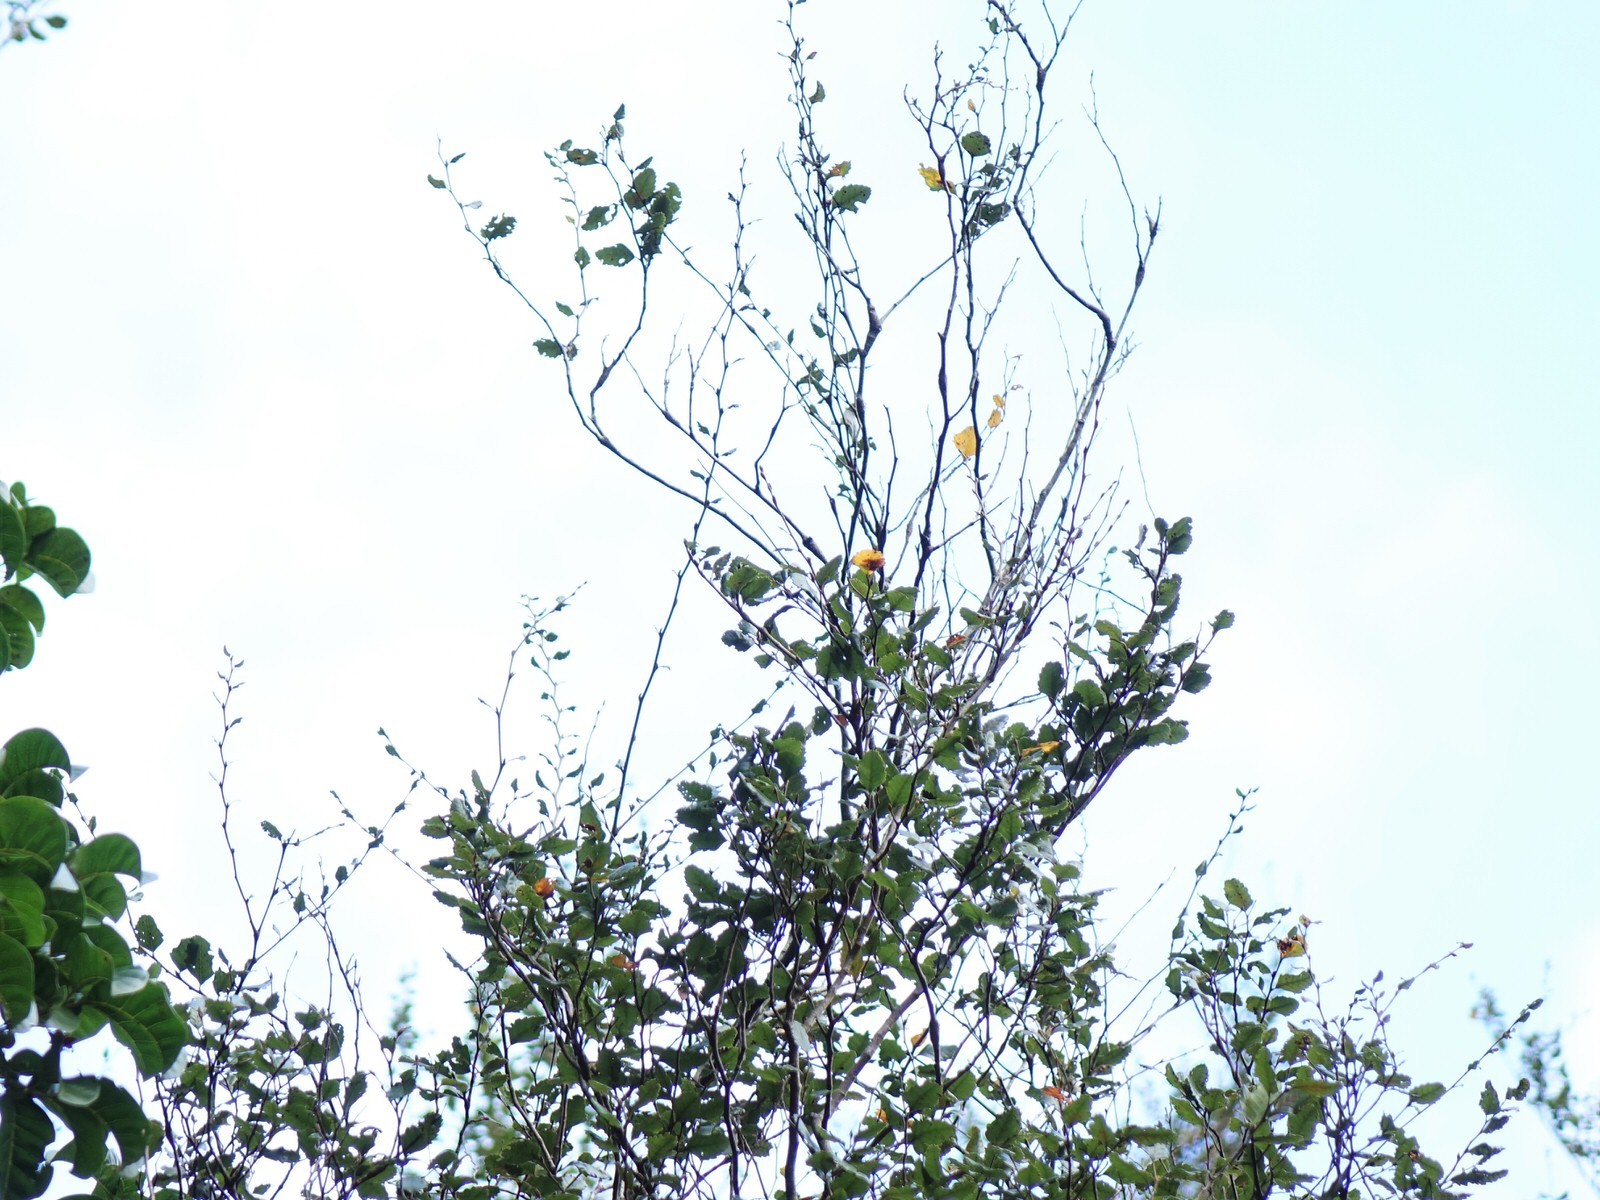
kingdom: Plantae
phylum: Tracheophyta
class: Magnoliopsida
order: Fagales
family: Nothofagaceae
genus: Nothofagus
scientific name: Nothofagus truncata
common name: Hard beech
